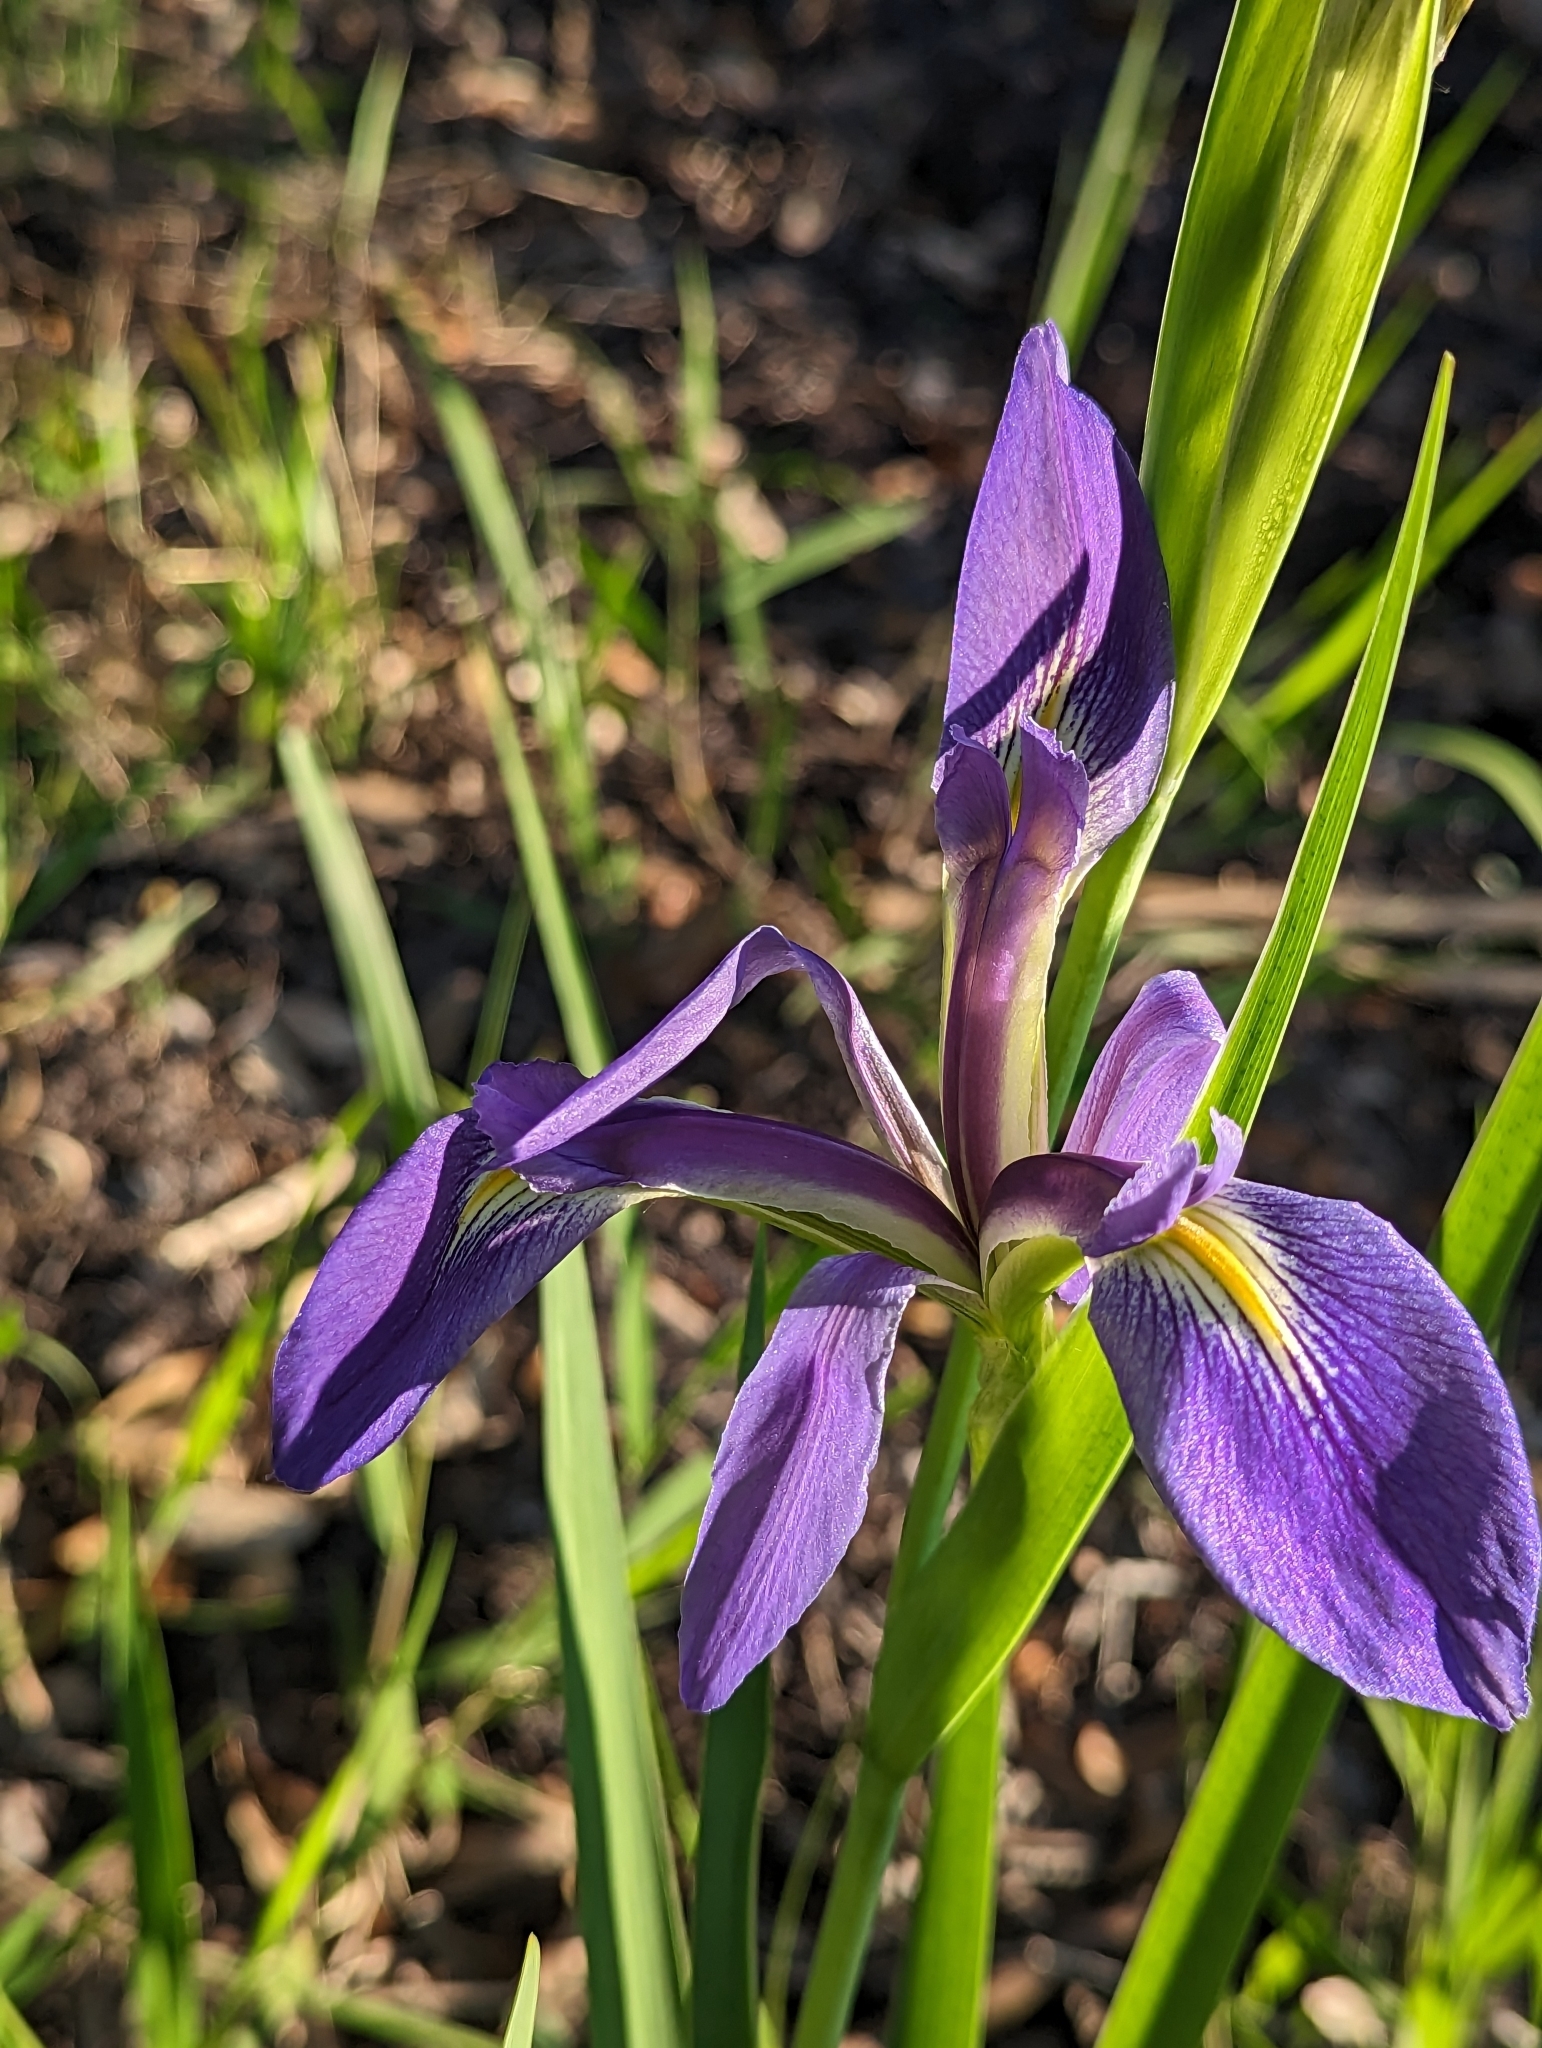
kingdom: Plantae
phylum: Tracheophyta
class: Liliopsida
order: Asparagales
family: Iridaceae
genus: Iris
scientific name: Iris savannarum
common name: Prairie iris
